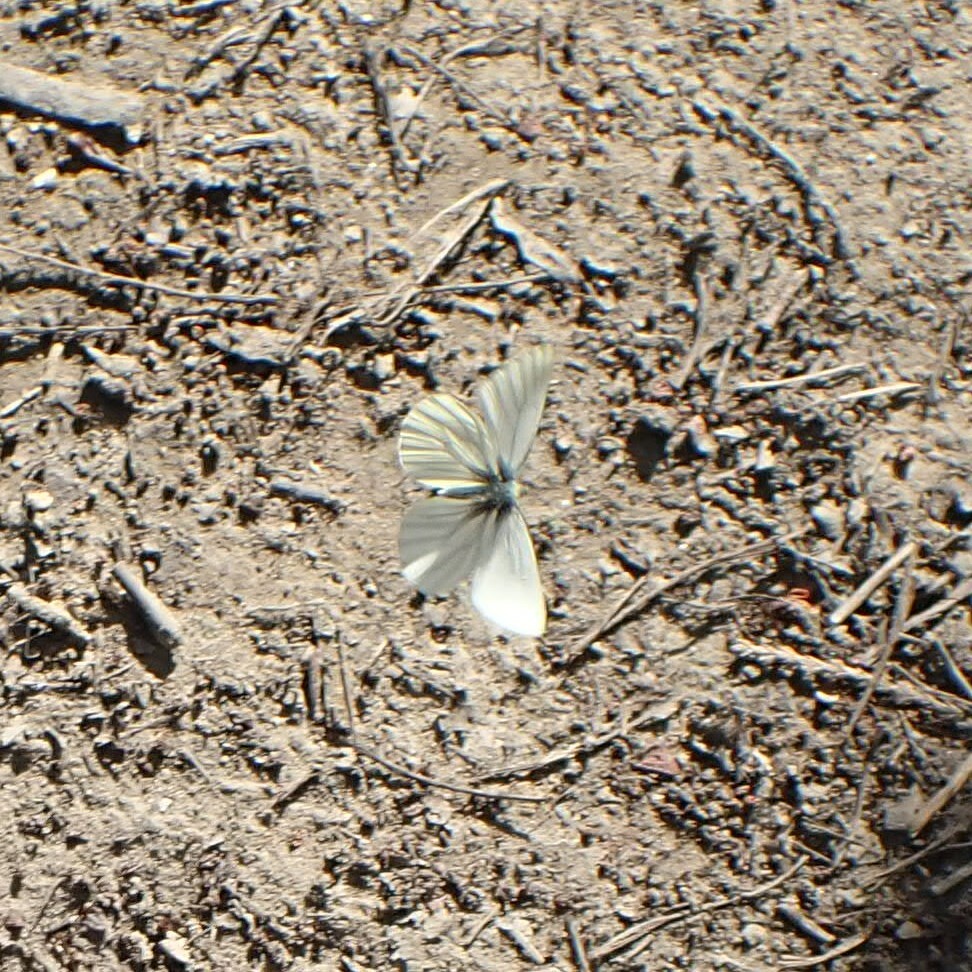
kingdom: Animalia
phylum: Arthropoda
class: Insecta
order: Lepidoptera
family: Pieridae
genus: Pieris
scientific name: Pieris marginalis
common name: Margined white
